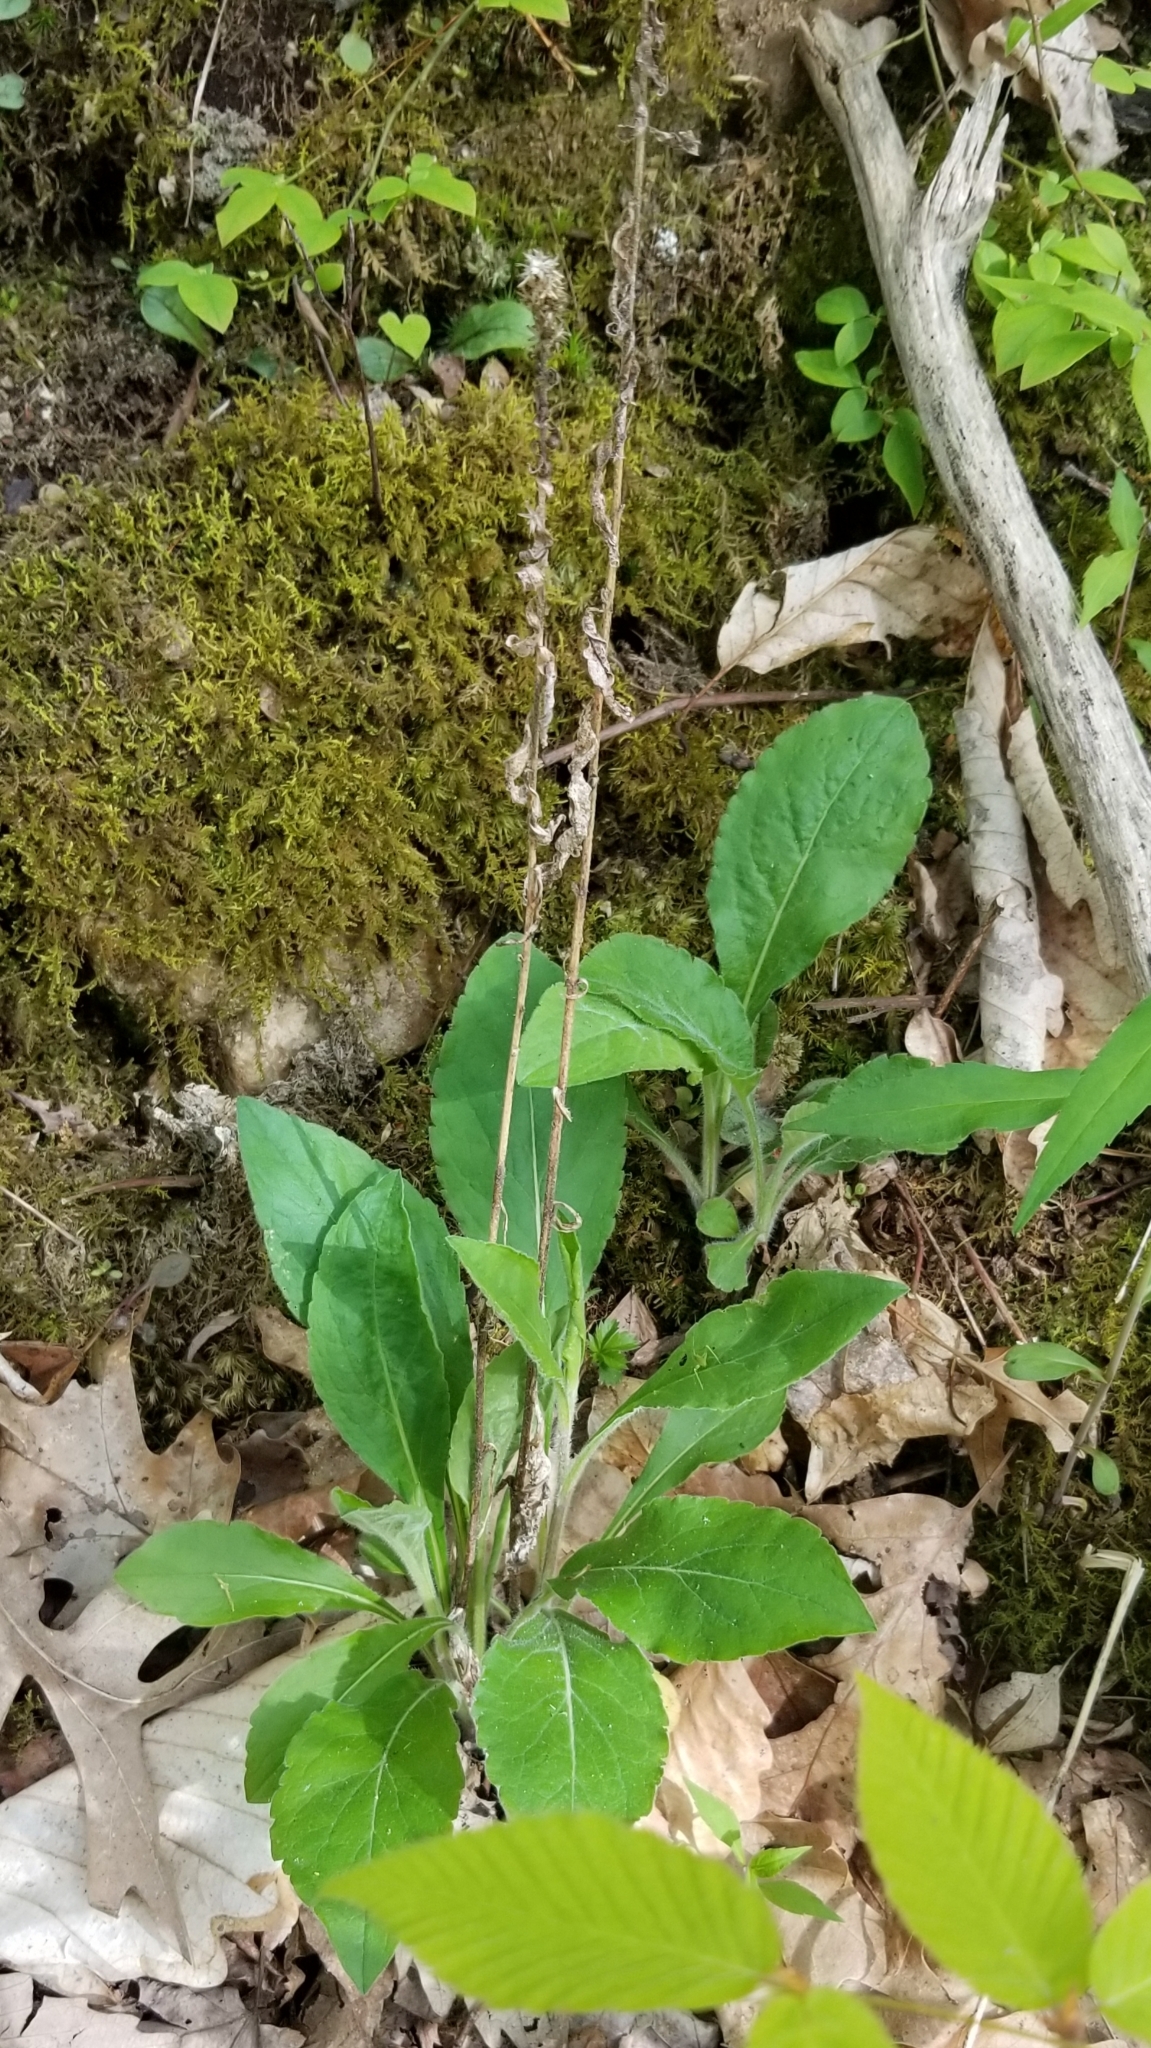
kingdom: Plantae
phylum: Tracheophyta
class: Magnoliopsida
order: Asterales
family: Asteraceae
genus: Solidago
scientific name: Solidago bicolor
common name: Silverrod
